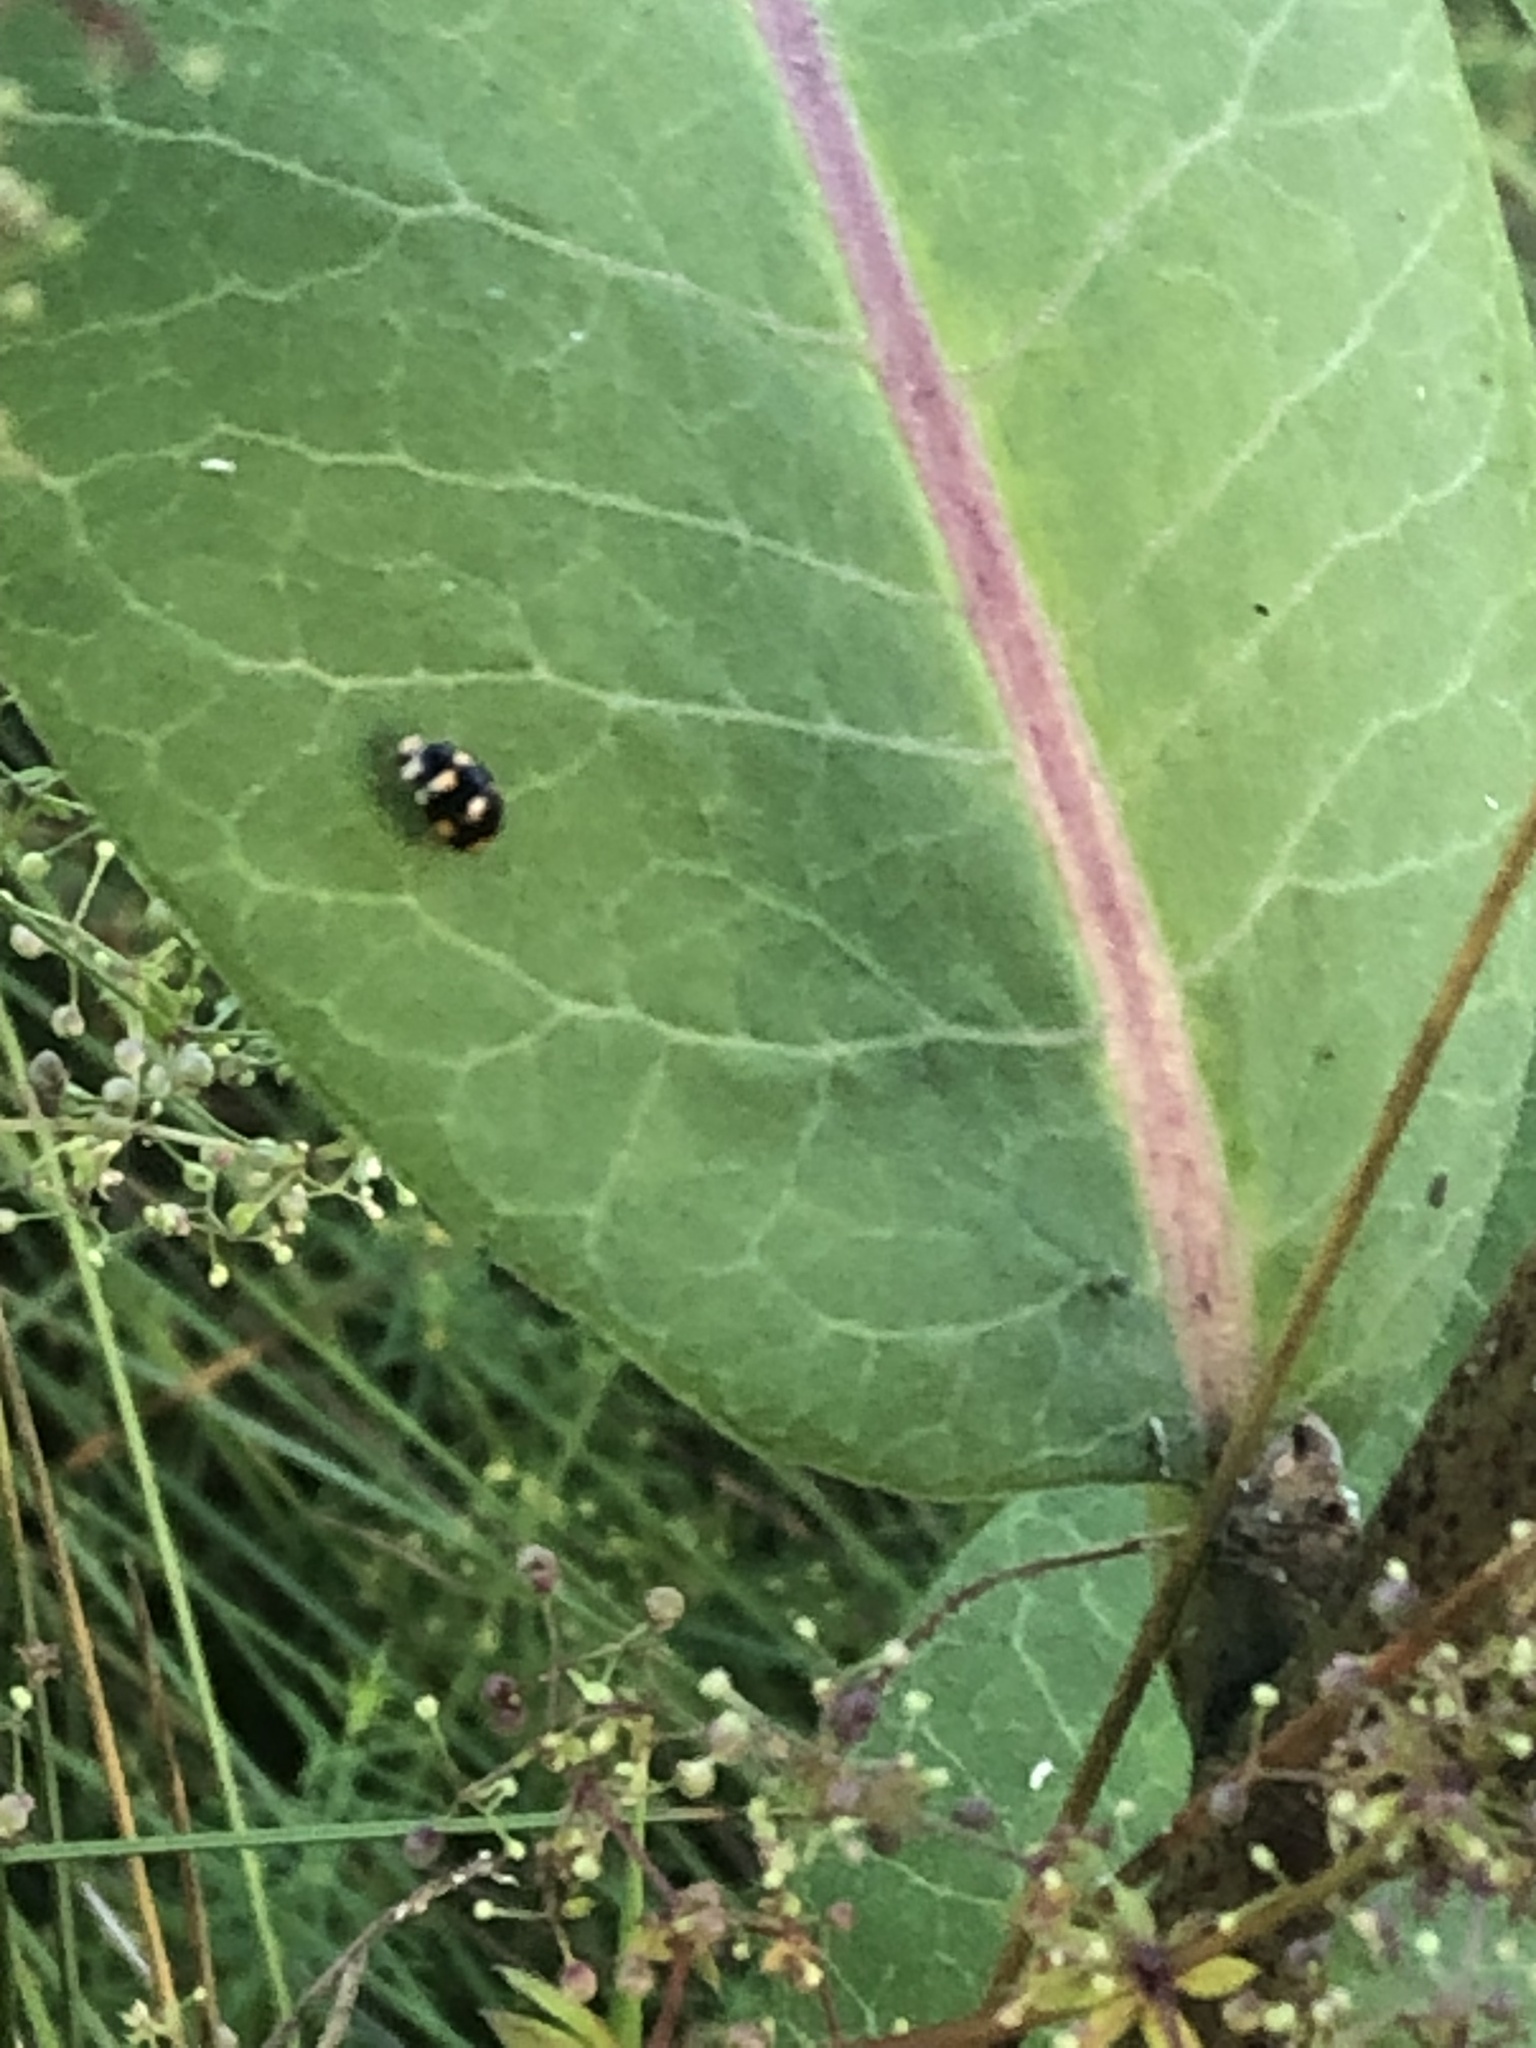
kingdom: Animalia
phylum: Arthropoda
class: Insecta
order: Coleoptera
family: Coccinellidae
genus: Brachiacantha
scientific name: Brachiacantha ursina
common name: Ursine spurleg lady beetle
